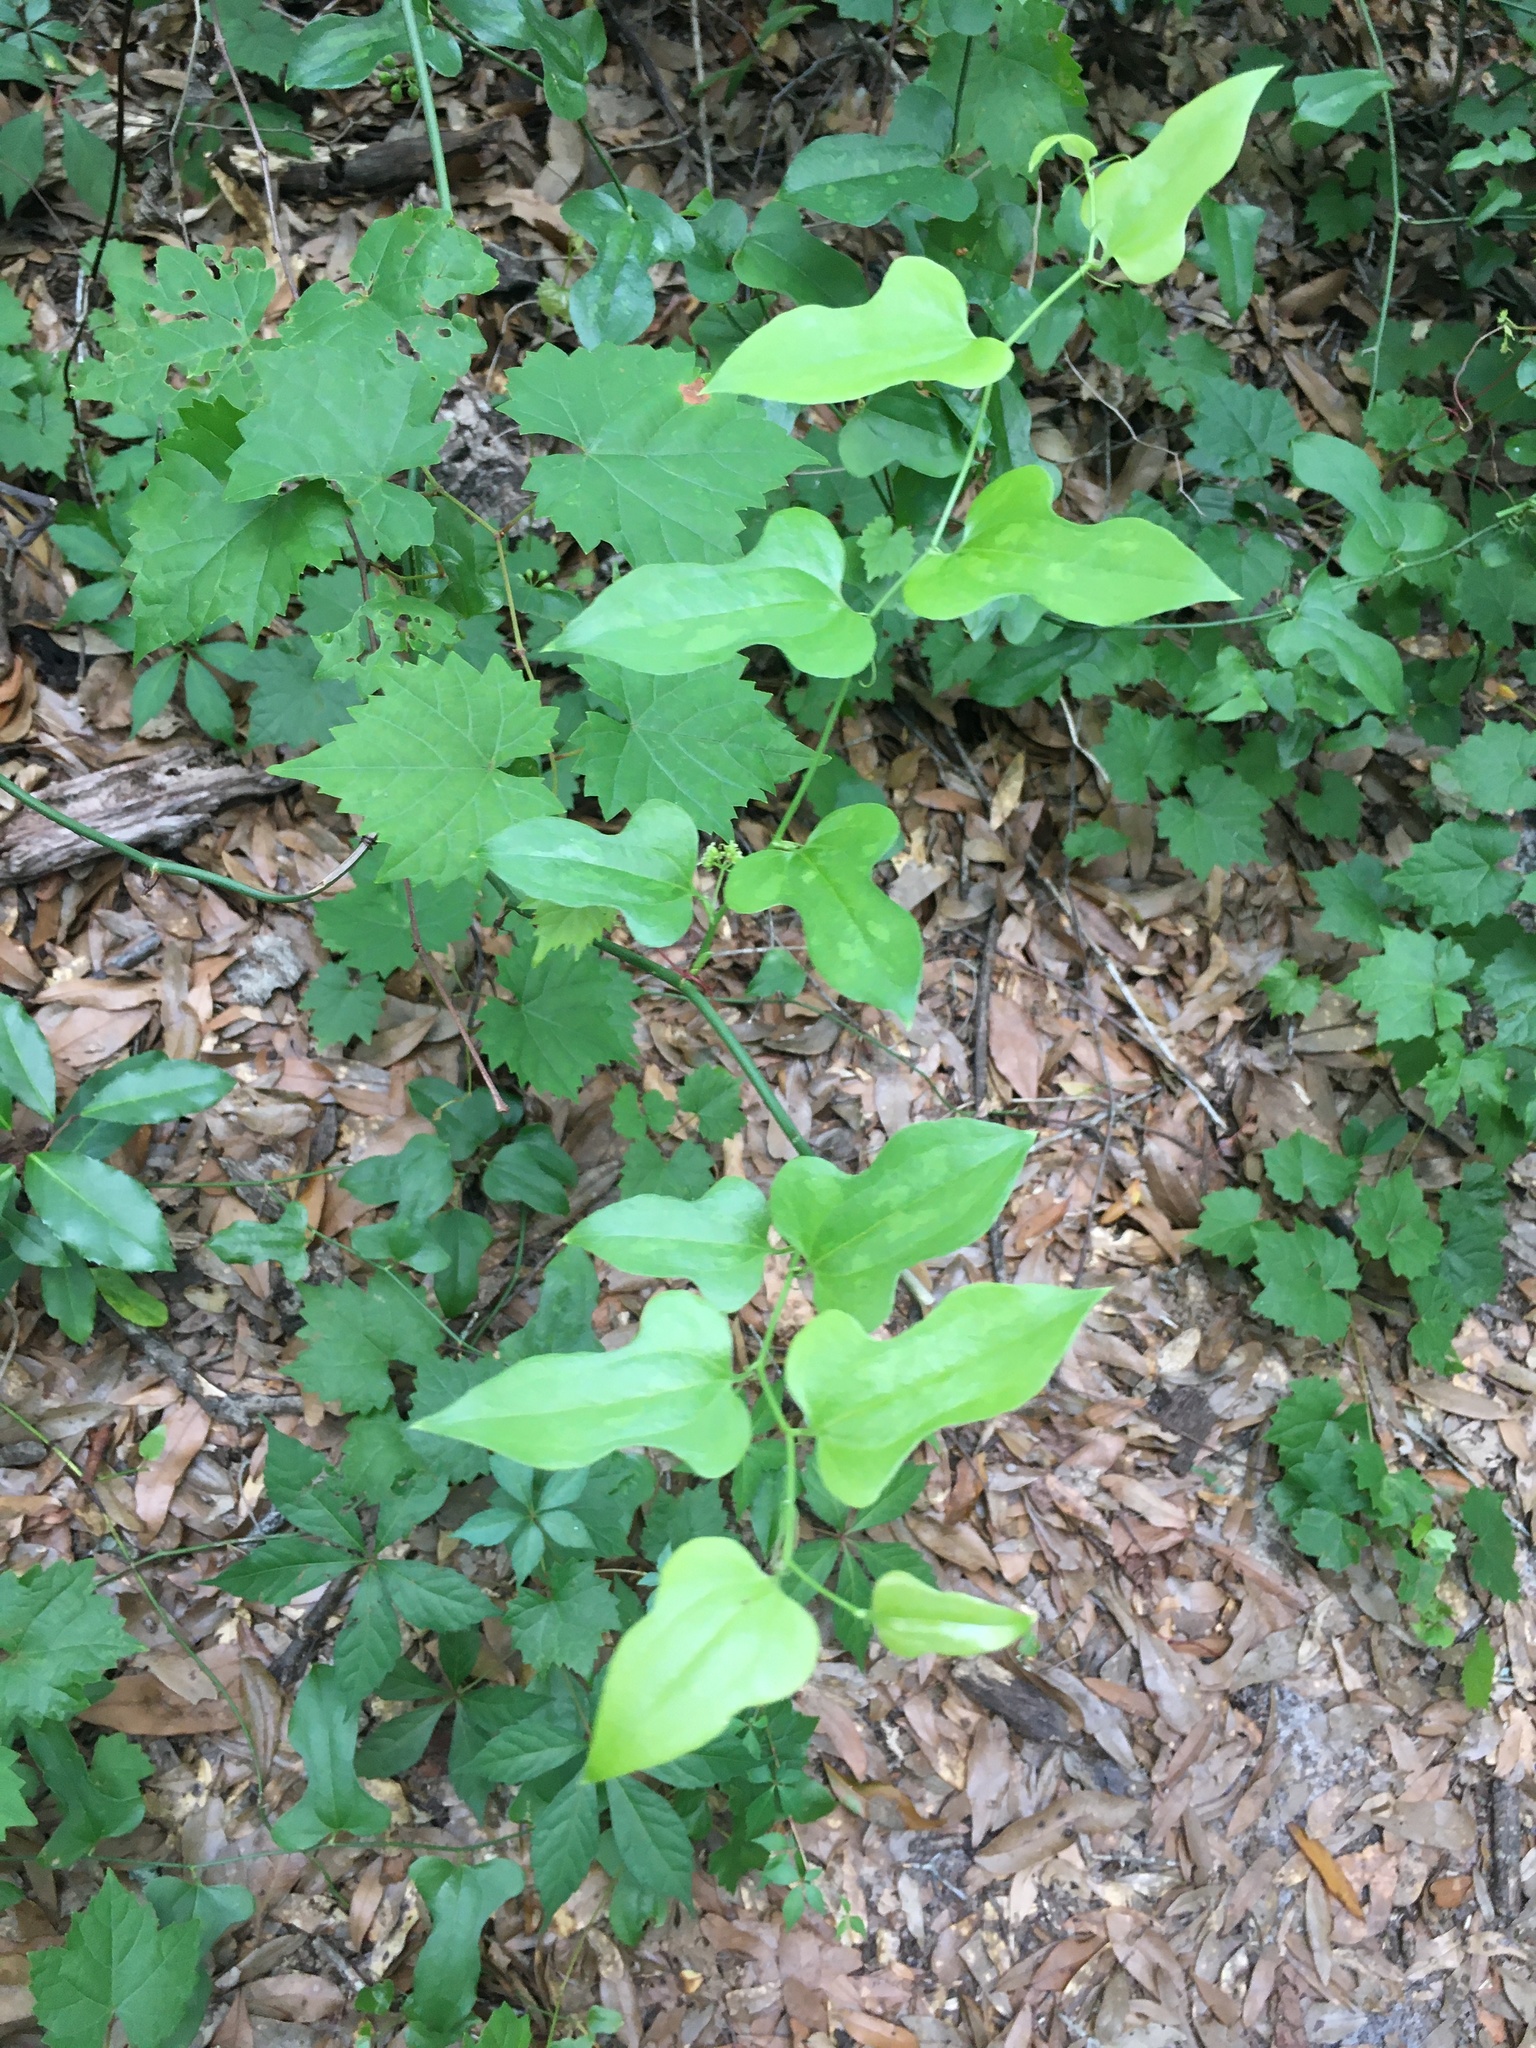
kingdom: Plantae
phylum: Tracheophyta
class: Liliopsida
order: Liliales
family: Smilacaceae
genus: Smilax
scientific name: Smilax tamnoides
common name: Hellfetter
